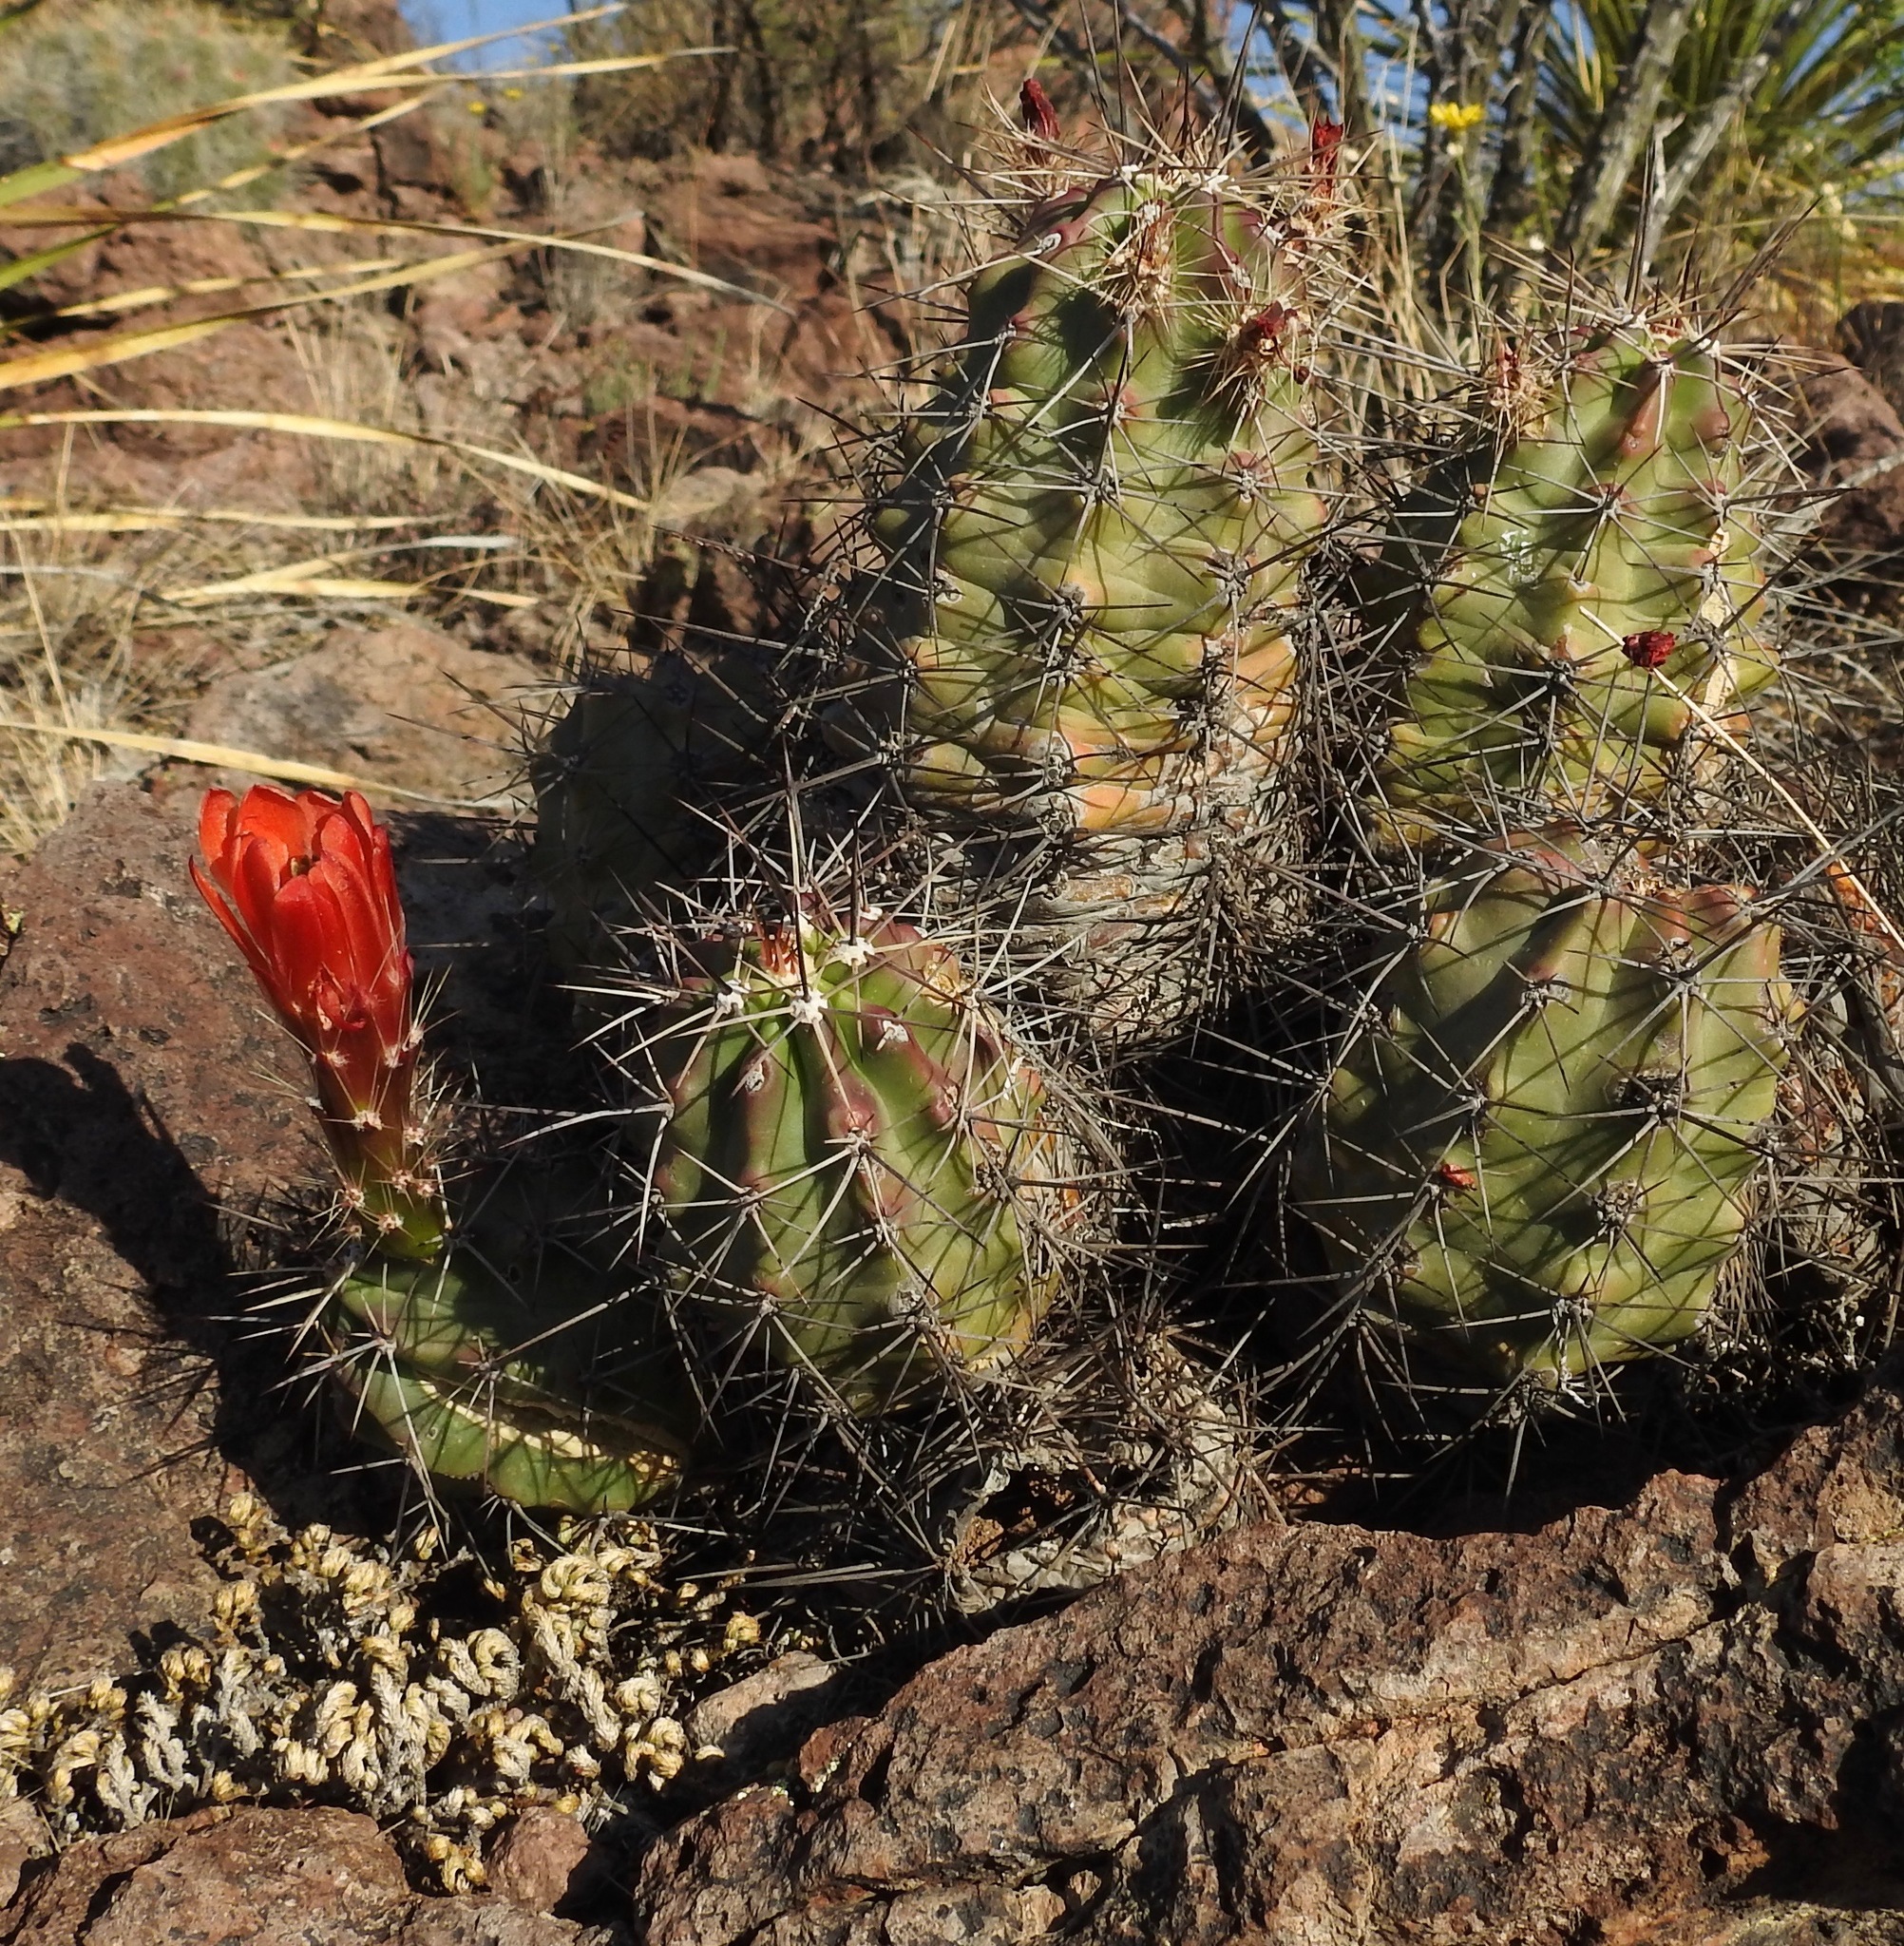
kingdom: Plantae
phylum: Tracheophyta
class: Magnoliopsida
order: Caryophyllales
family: Cactaceae
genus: Echinocereus
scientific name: Echinocereus coccineus
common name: Scarlet hedgehog cactus
